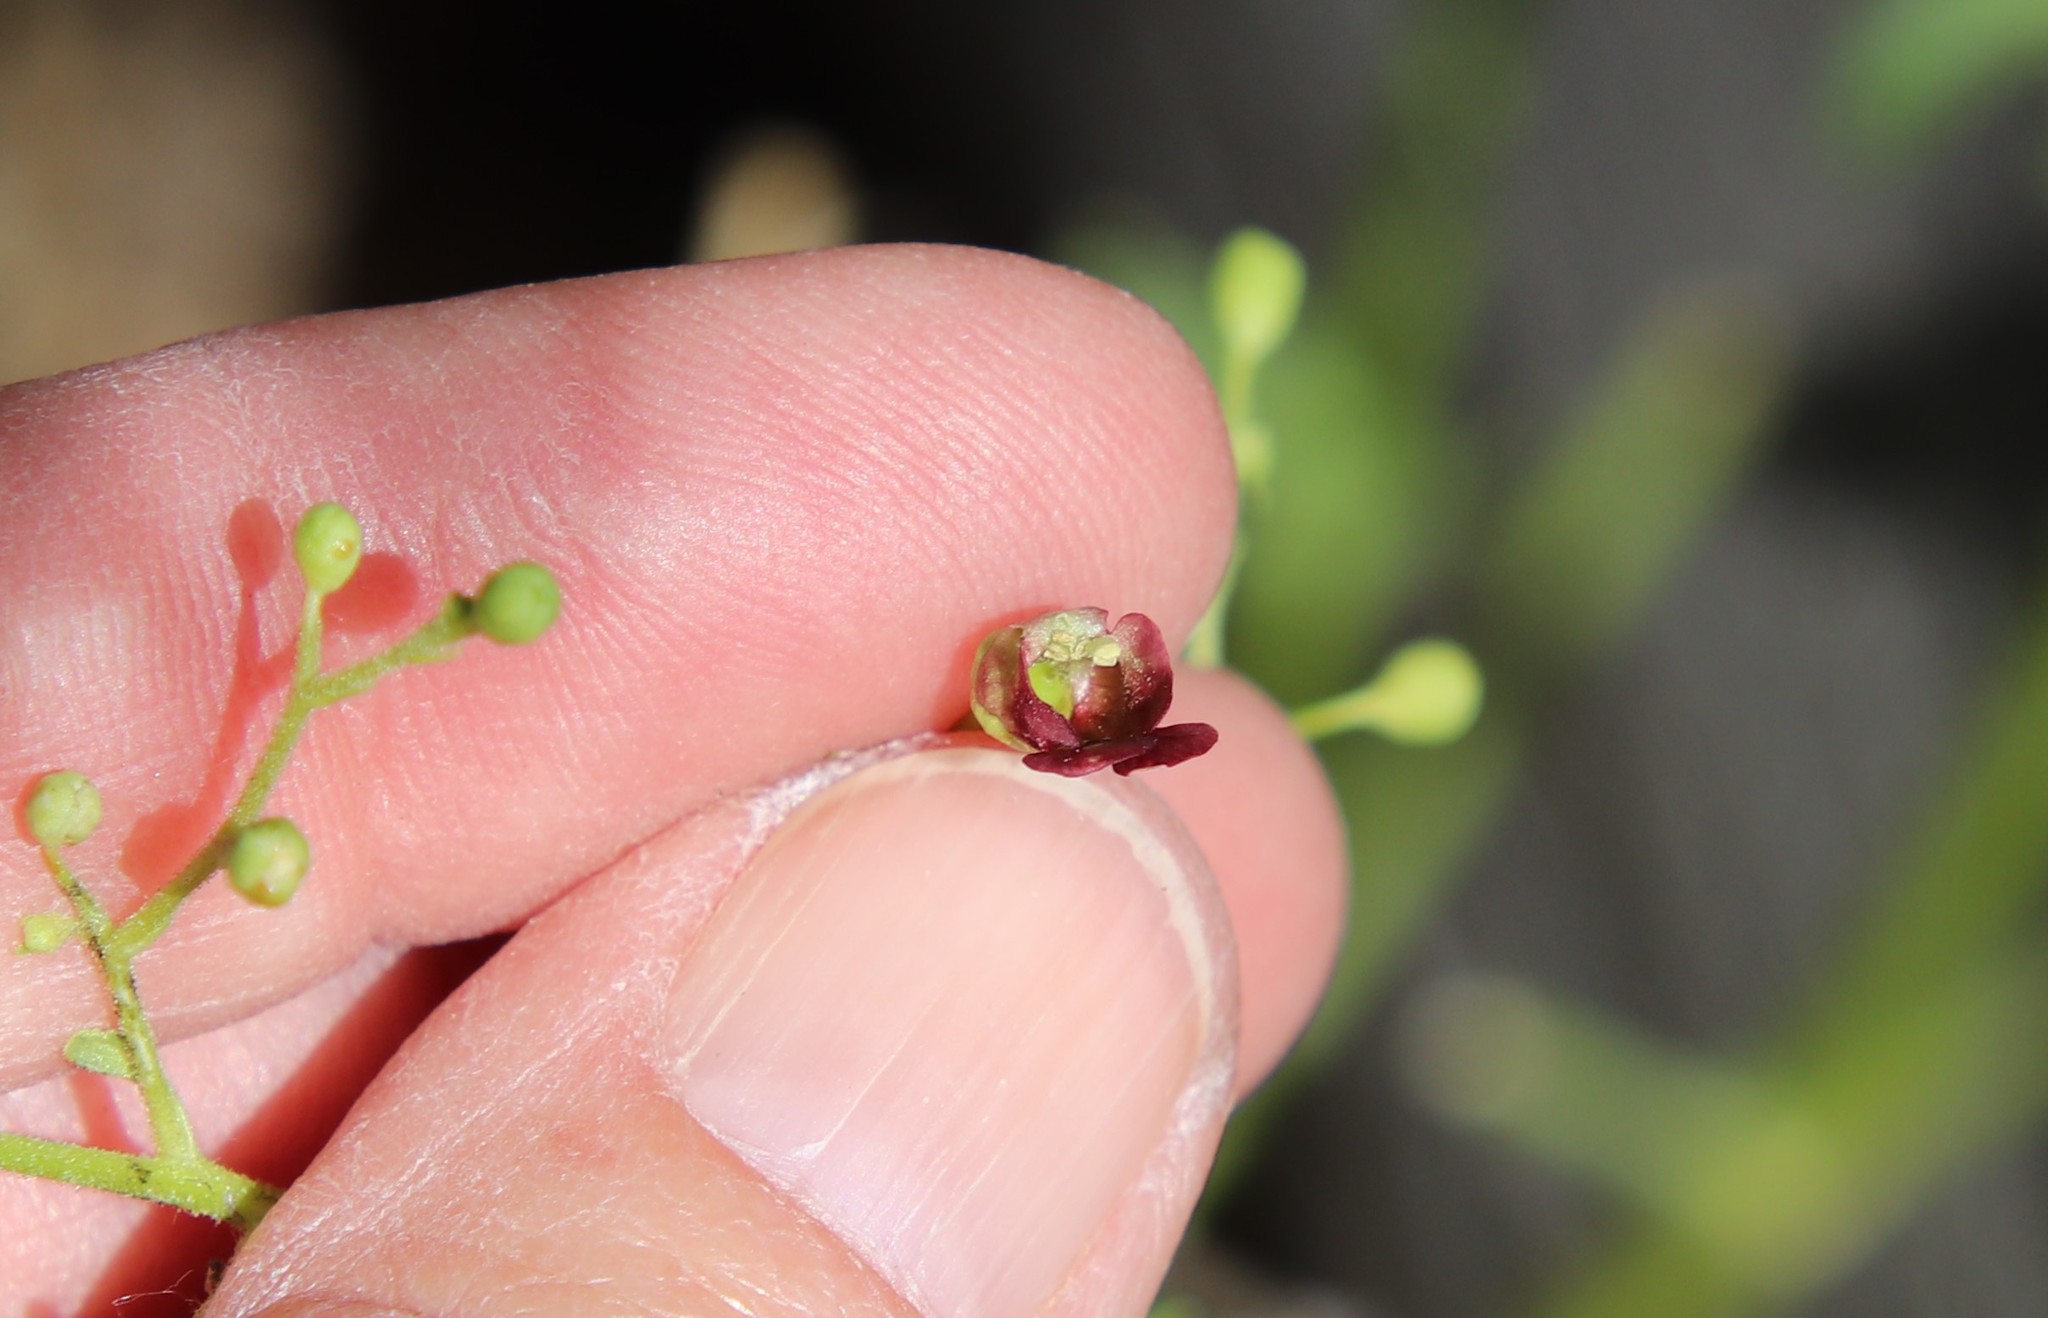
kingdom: Plantae
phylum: Tracheophyta
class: Magnoliopsida
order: Lamiales
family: Scrophulariaceae
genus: Scrophularia
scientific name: Scrophularia californica
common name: California figwort
